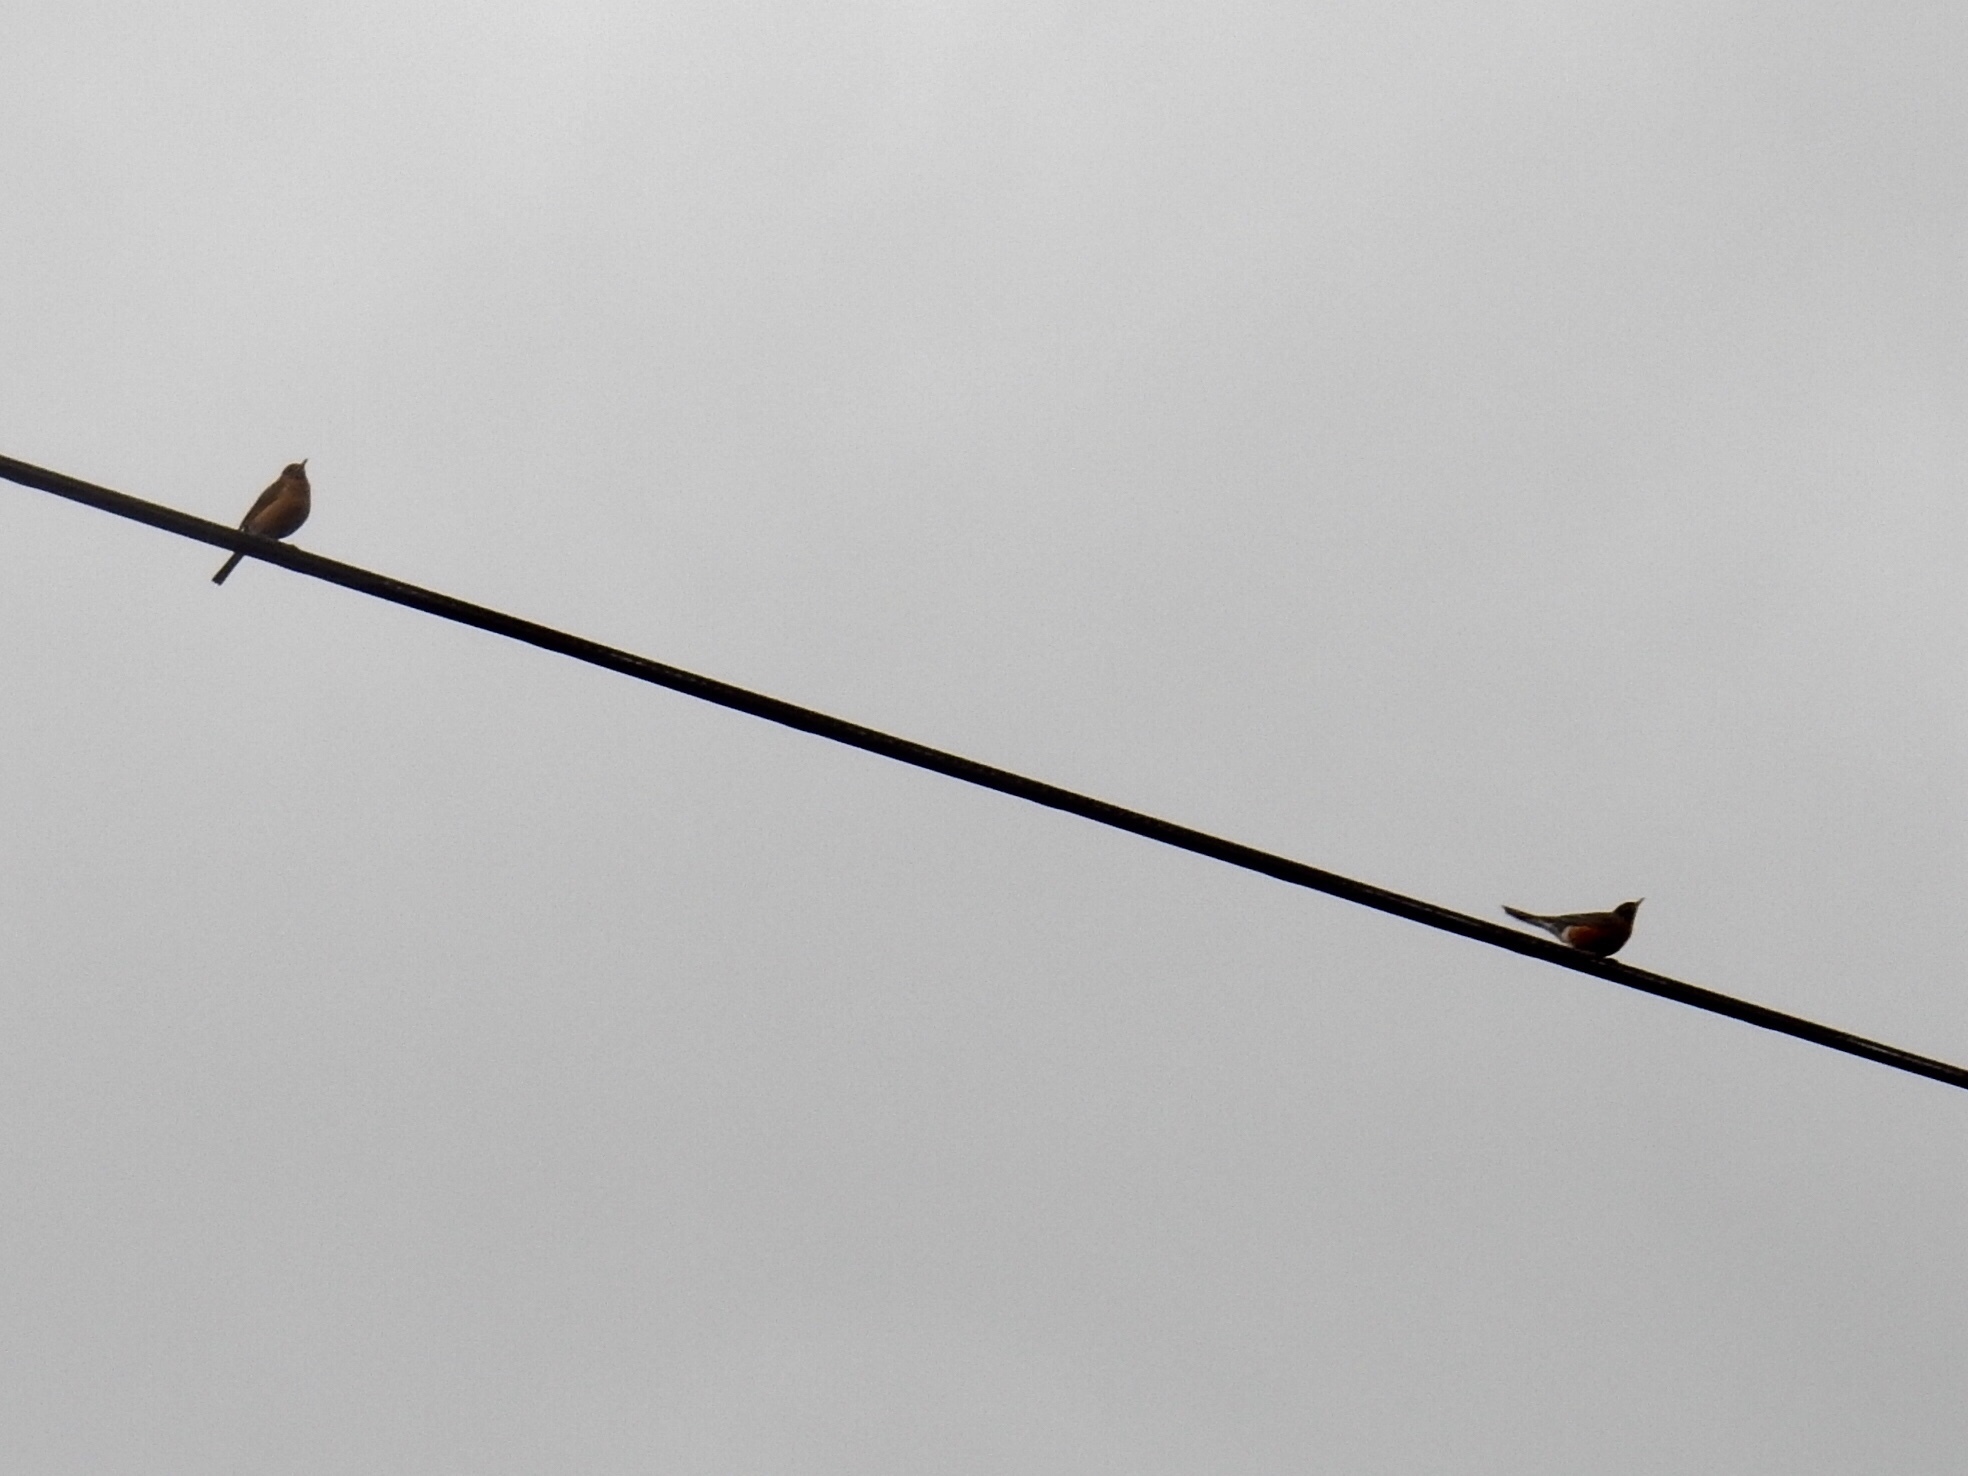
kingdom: Animalia
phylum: Chordata
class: Aves
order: Passeriformes
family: Turdidae
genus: Turdus
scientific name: Turdus migratorius
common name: American robin
